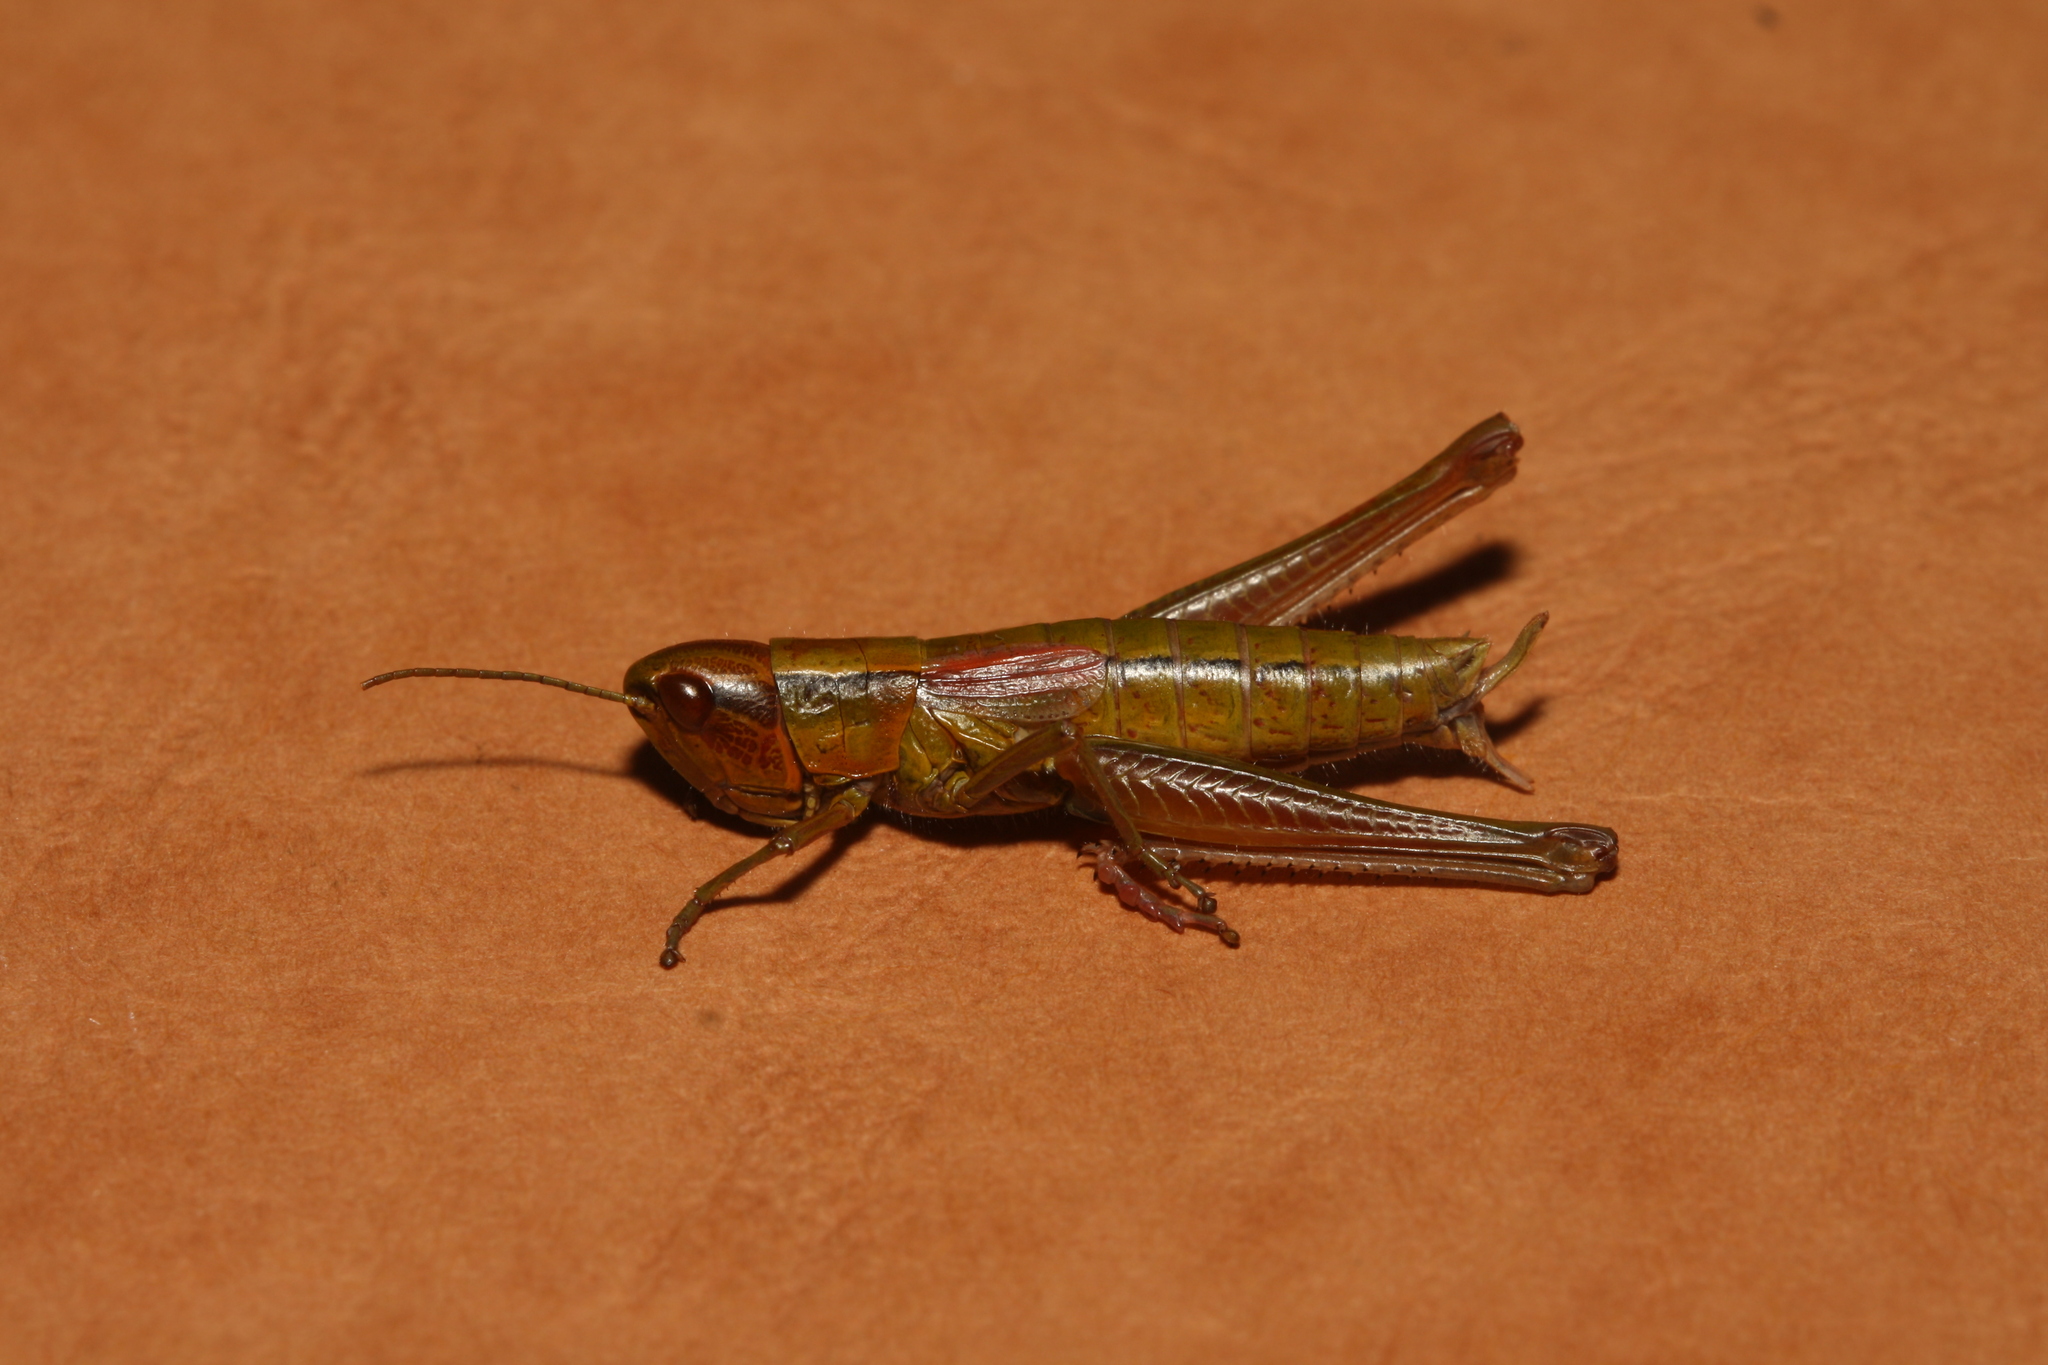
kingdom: Animalia
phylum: Arthropoda
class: Insecta
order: Orthoptera
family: Acrididae
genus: Euthystira
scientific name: Euthystira brachyptera
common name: Small gold grasshopper
